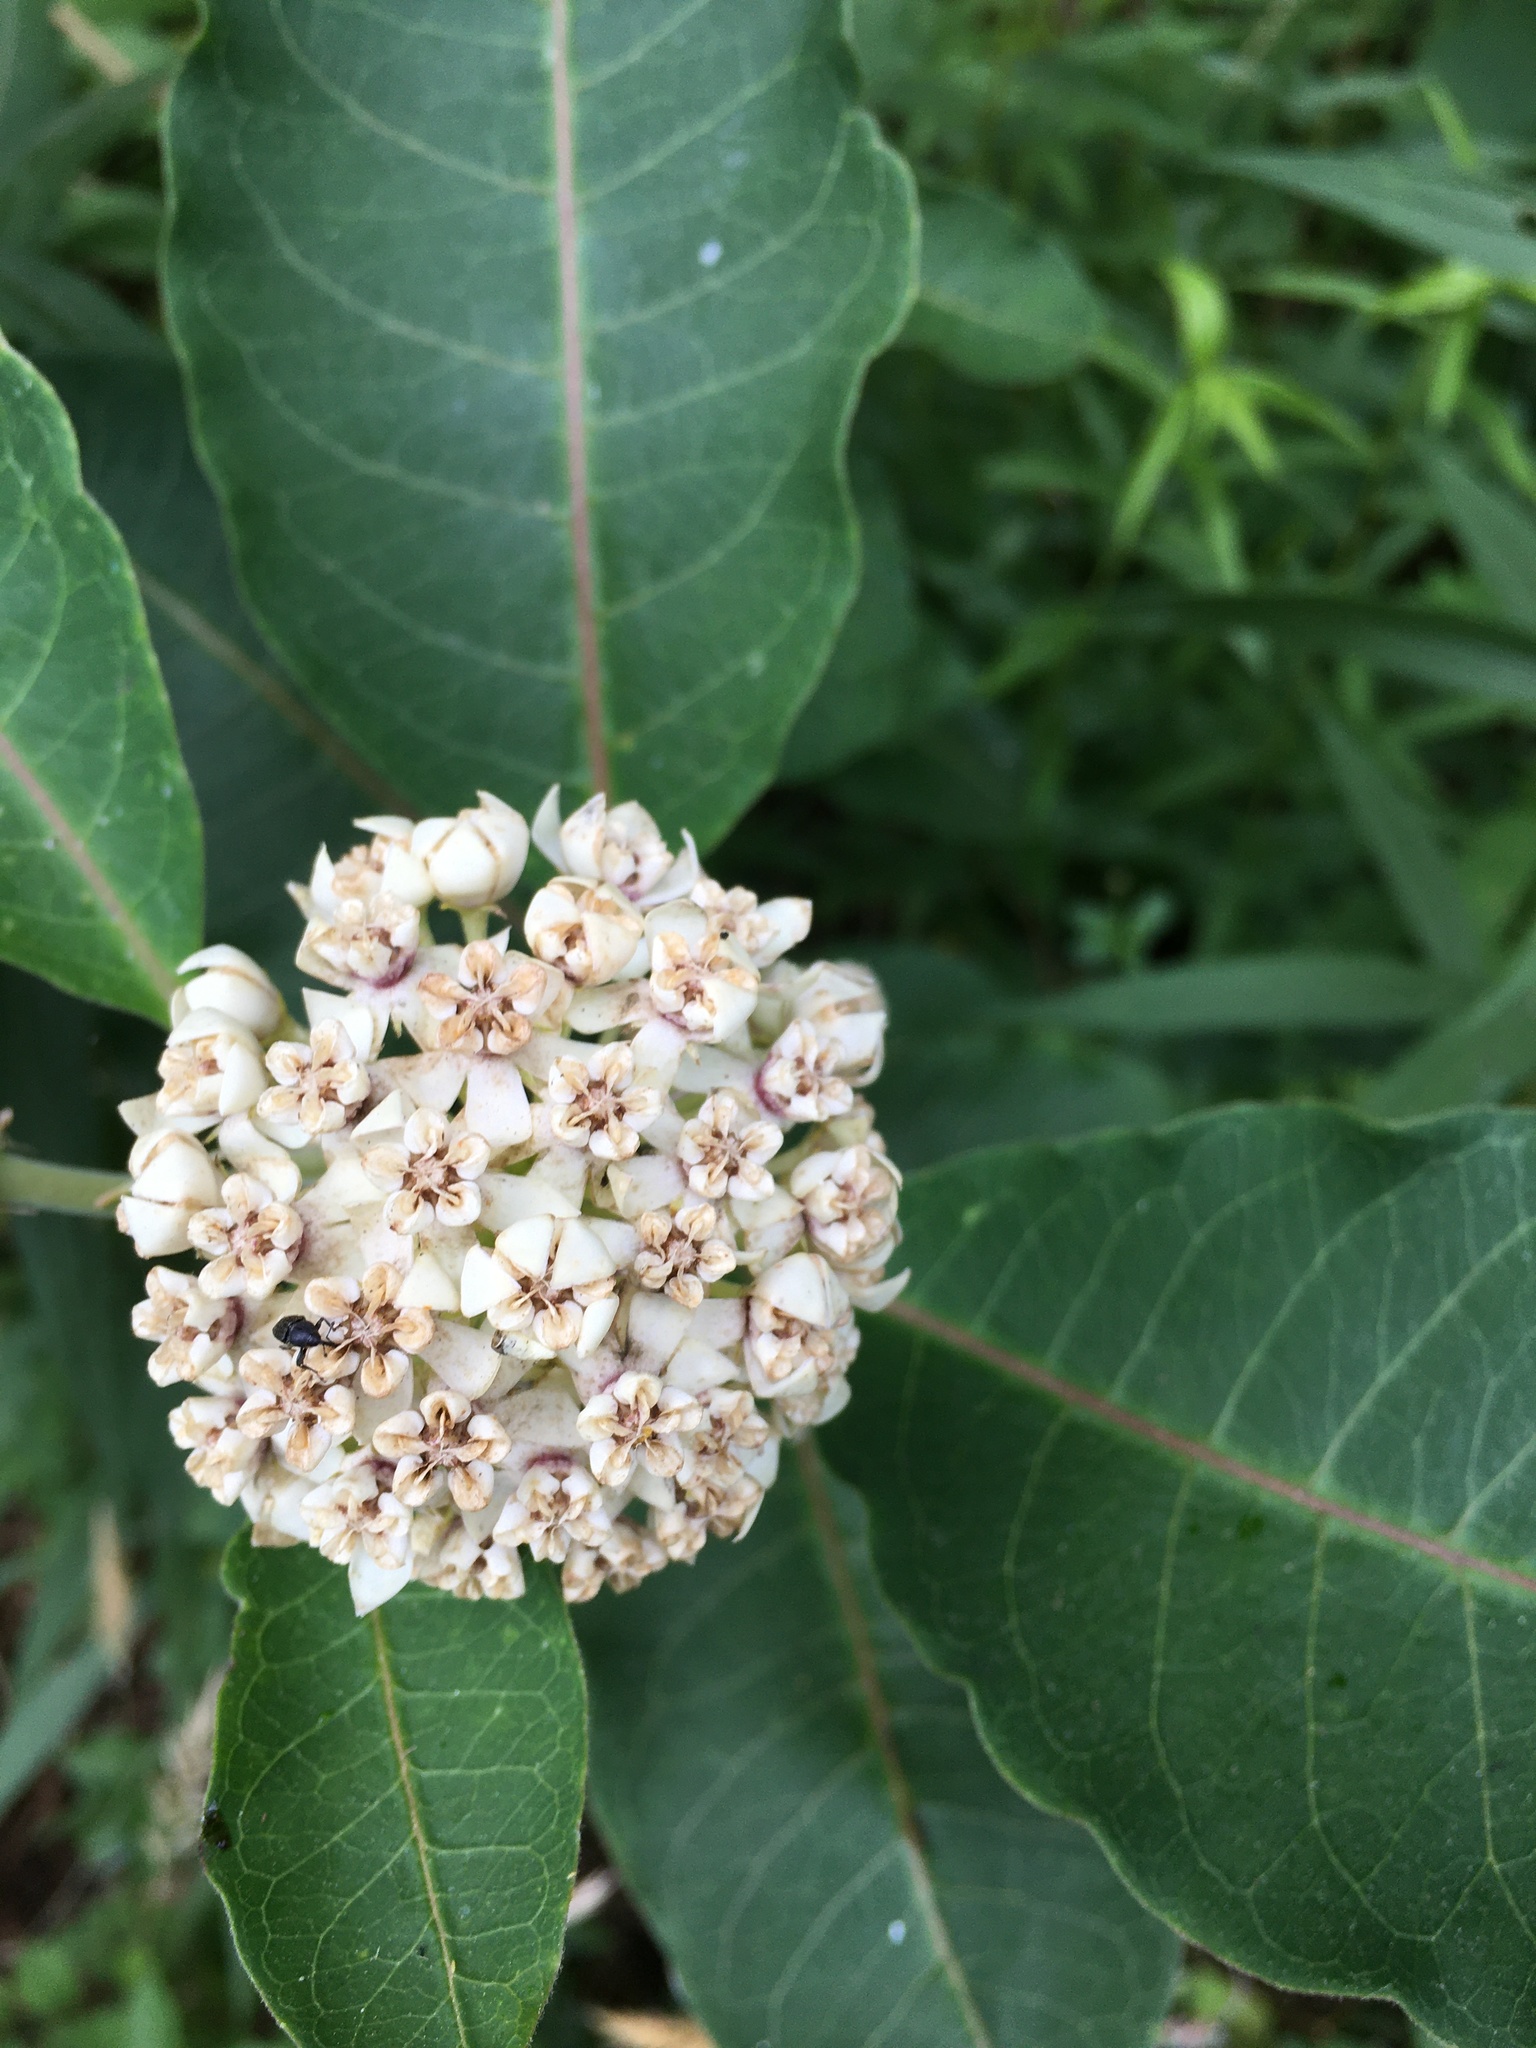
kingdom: Plantae
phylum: Tracheophyta
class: Magnoliopsida
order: Gentianales
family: Apocynaceae
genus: Asclepias
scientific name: Asclepias variegata
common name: Variegated milkweed
